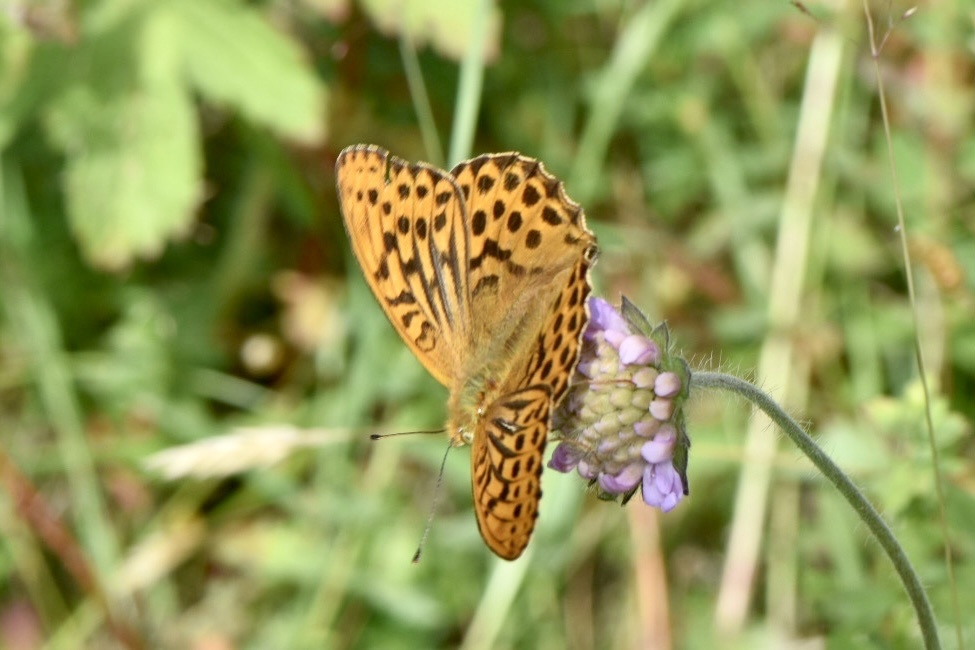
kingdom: Animalia
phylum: Arthropoda
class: Insecta
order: Lepidoptera
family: Nymphalidae
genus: Argynnis
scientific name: Argynnis paphia
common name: Silver-washed fritillary
